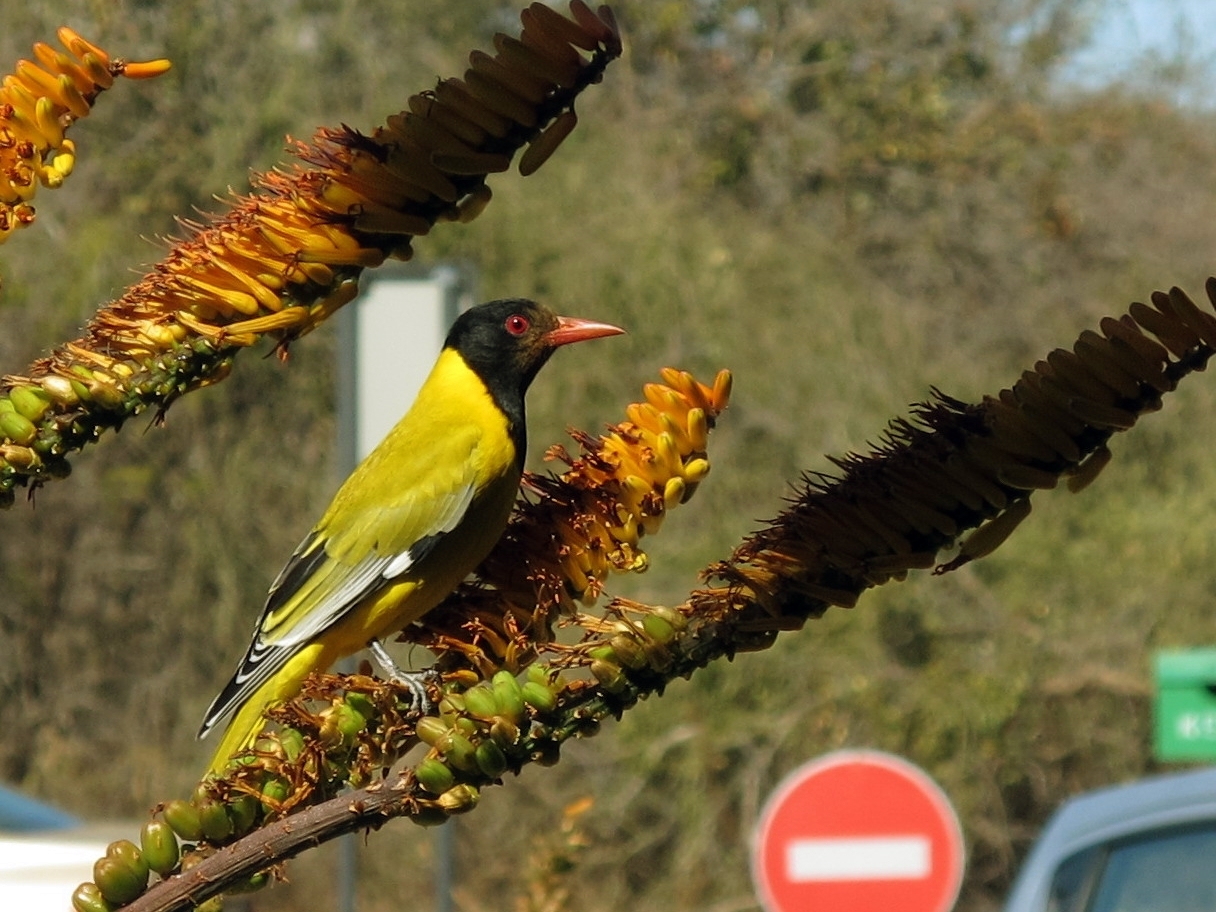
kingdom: Animalia
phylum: Chordata
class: Aves
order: Passeriformes
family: Oriolidae
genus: Oriolus
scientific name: Oriolus larvatus
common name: Black-headed oriole
